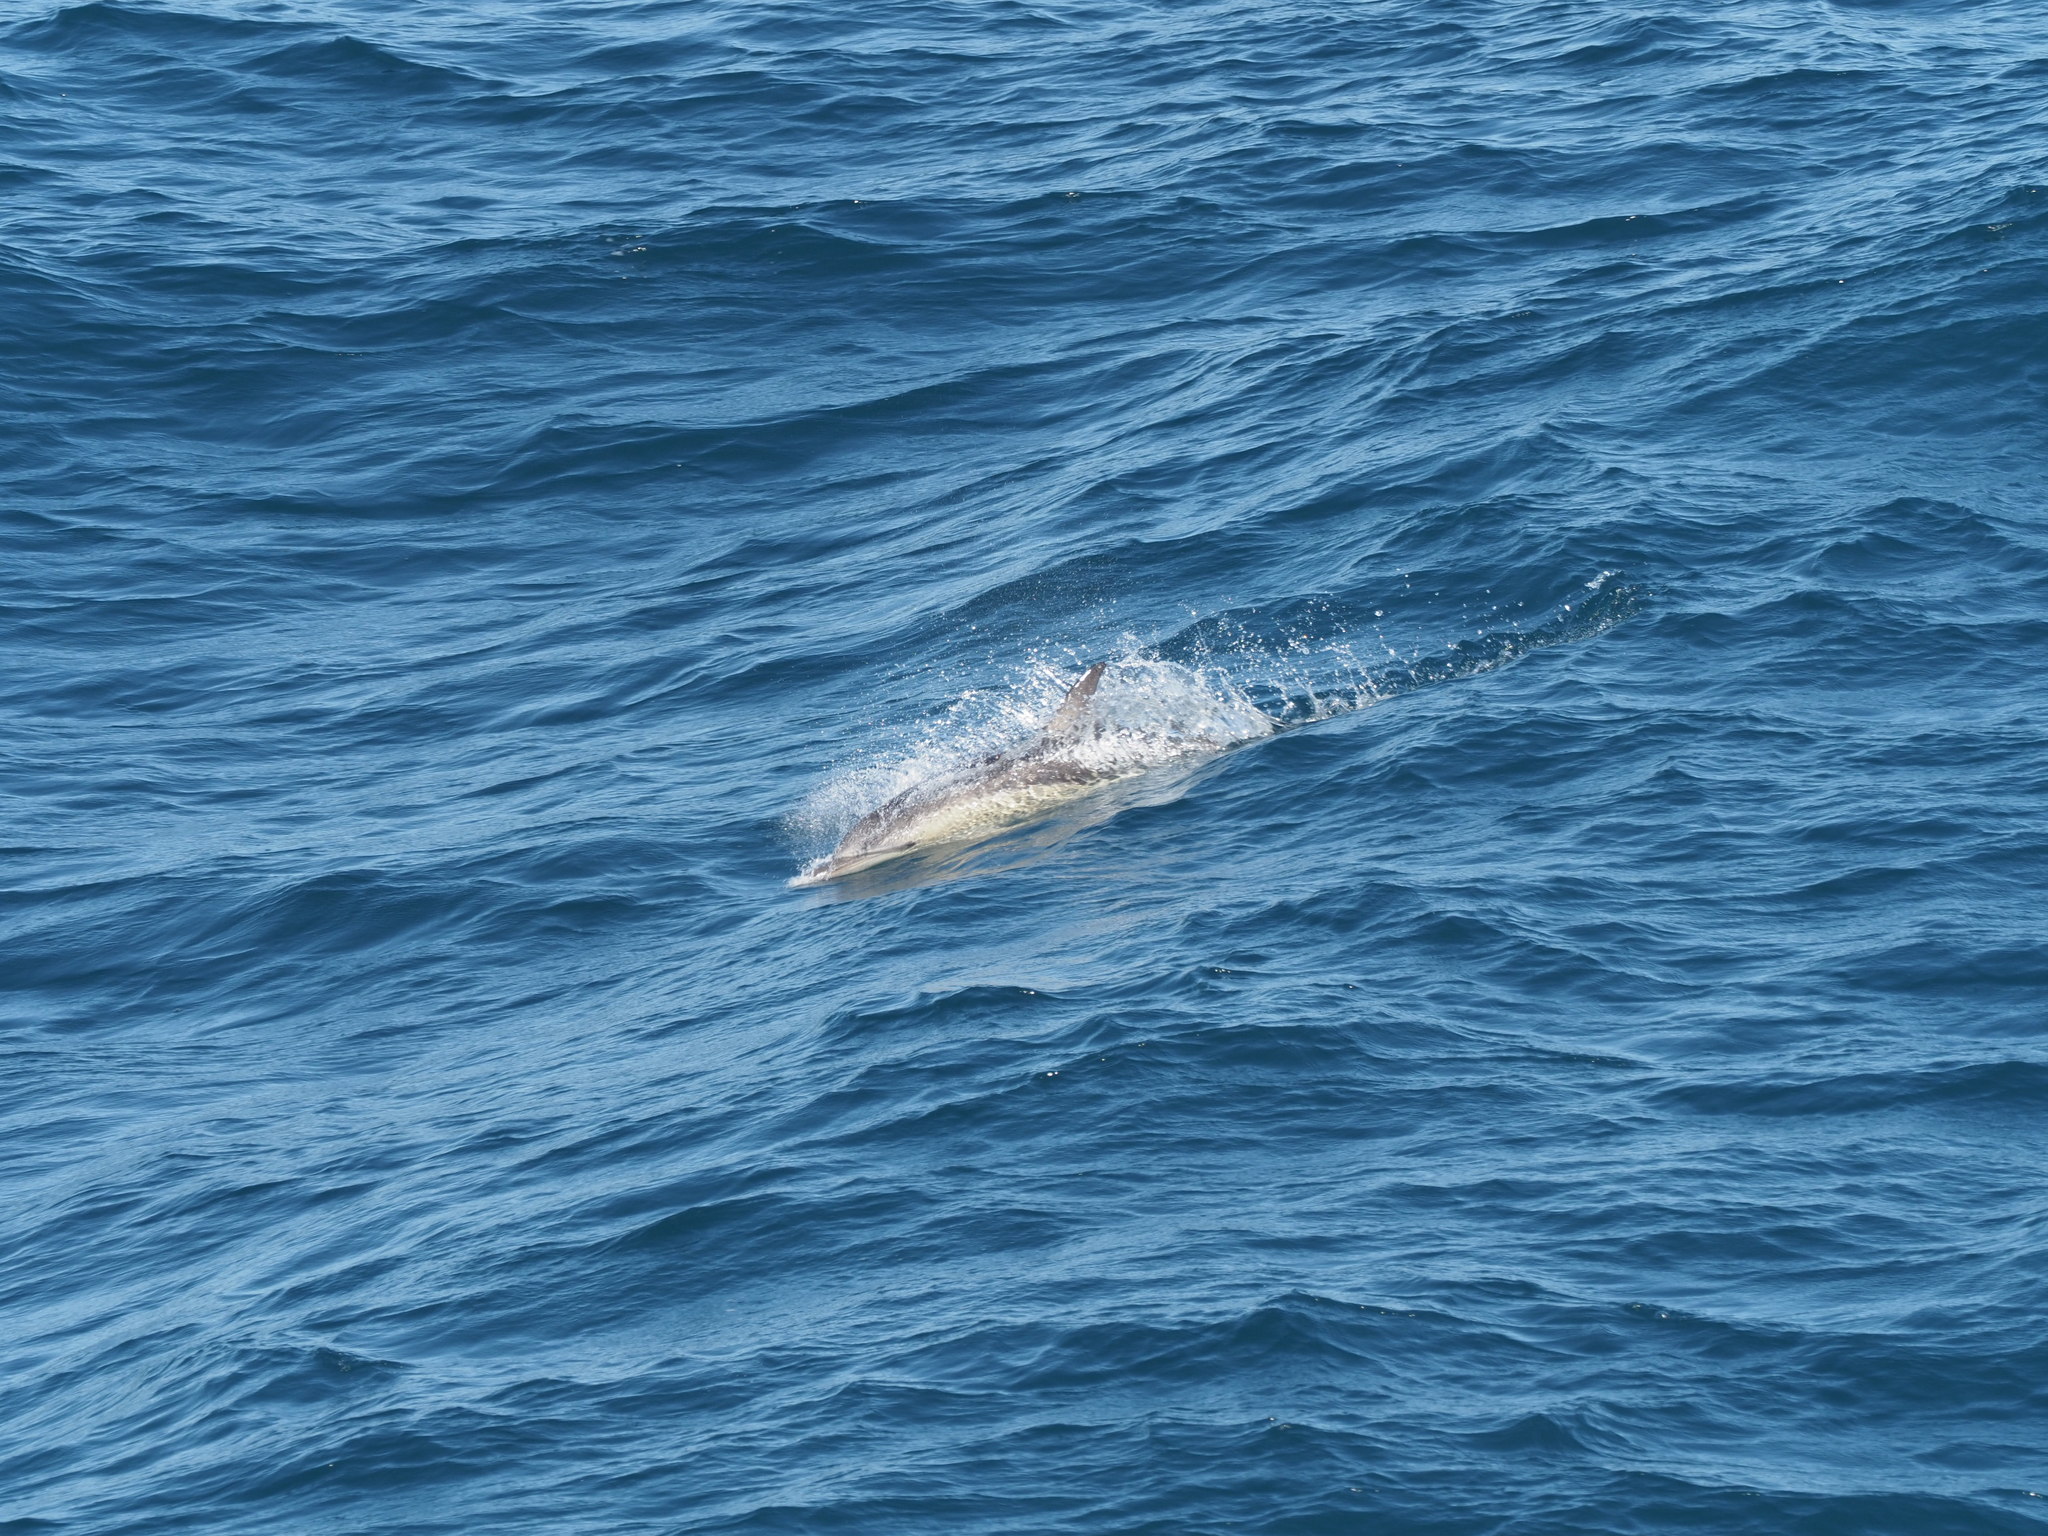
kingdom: Animalia
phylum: Chordata
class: Mammalia
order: Cetacea
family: Delphinidae
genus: Delphinus
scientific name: Delphinus delphis
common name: Common dolphin
